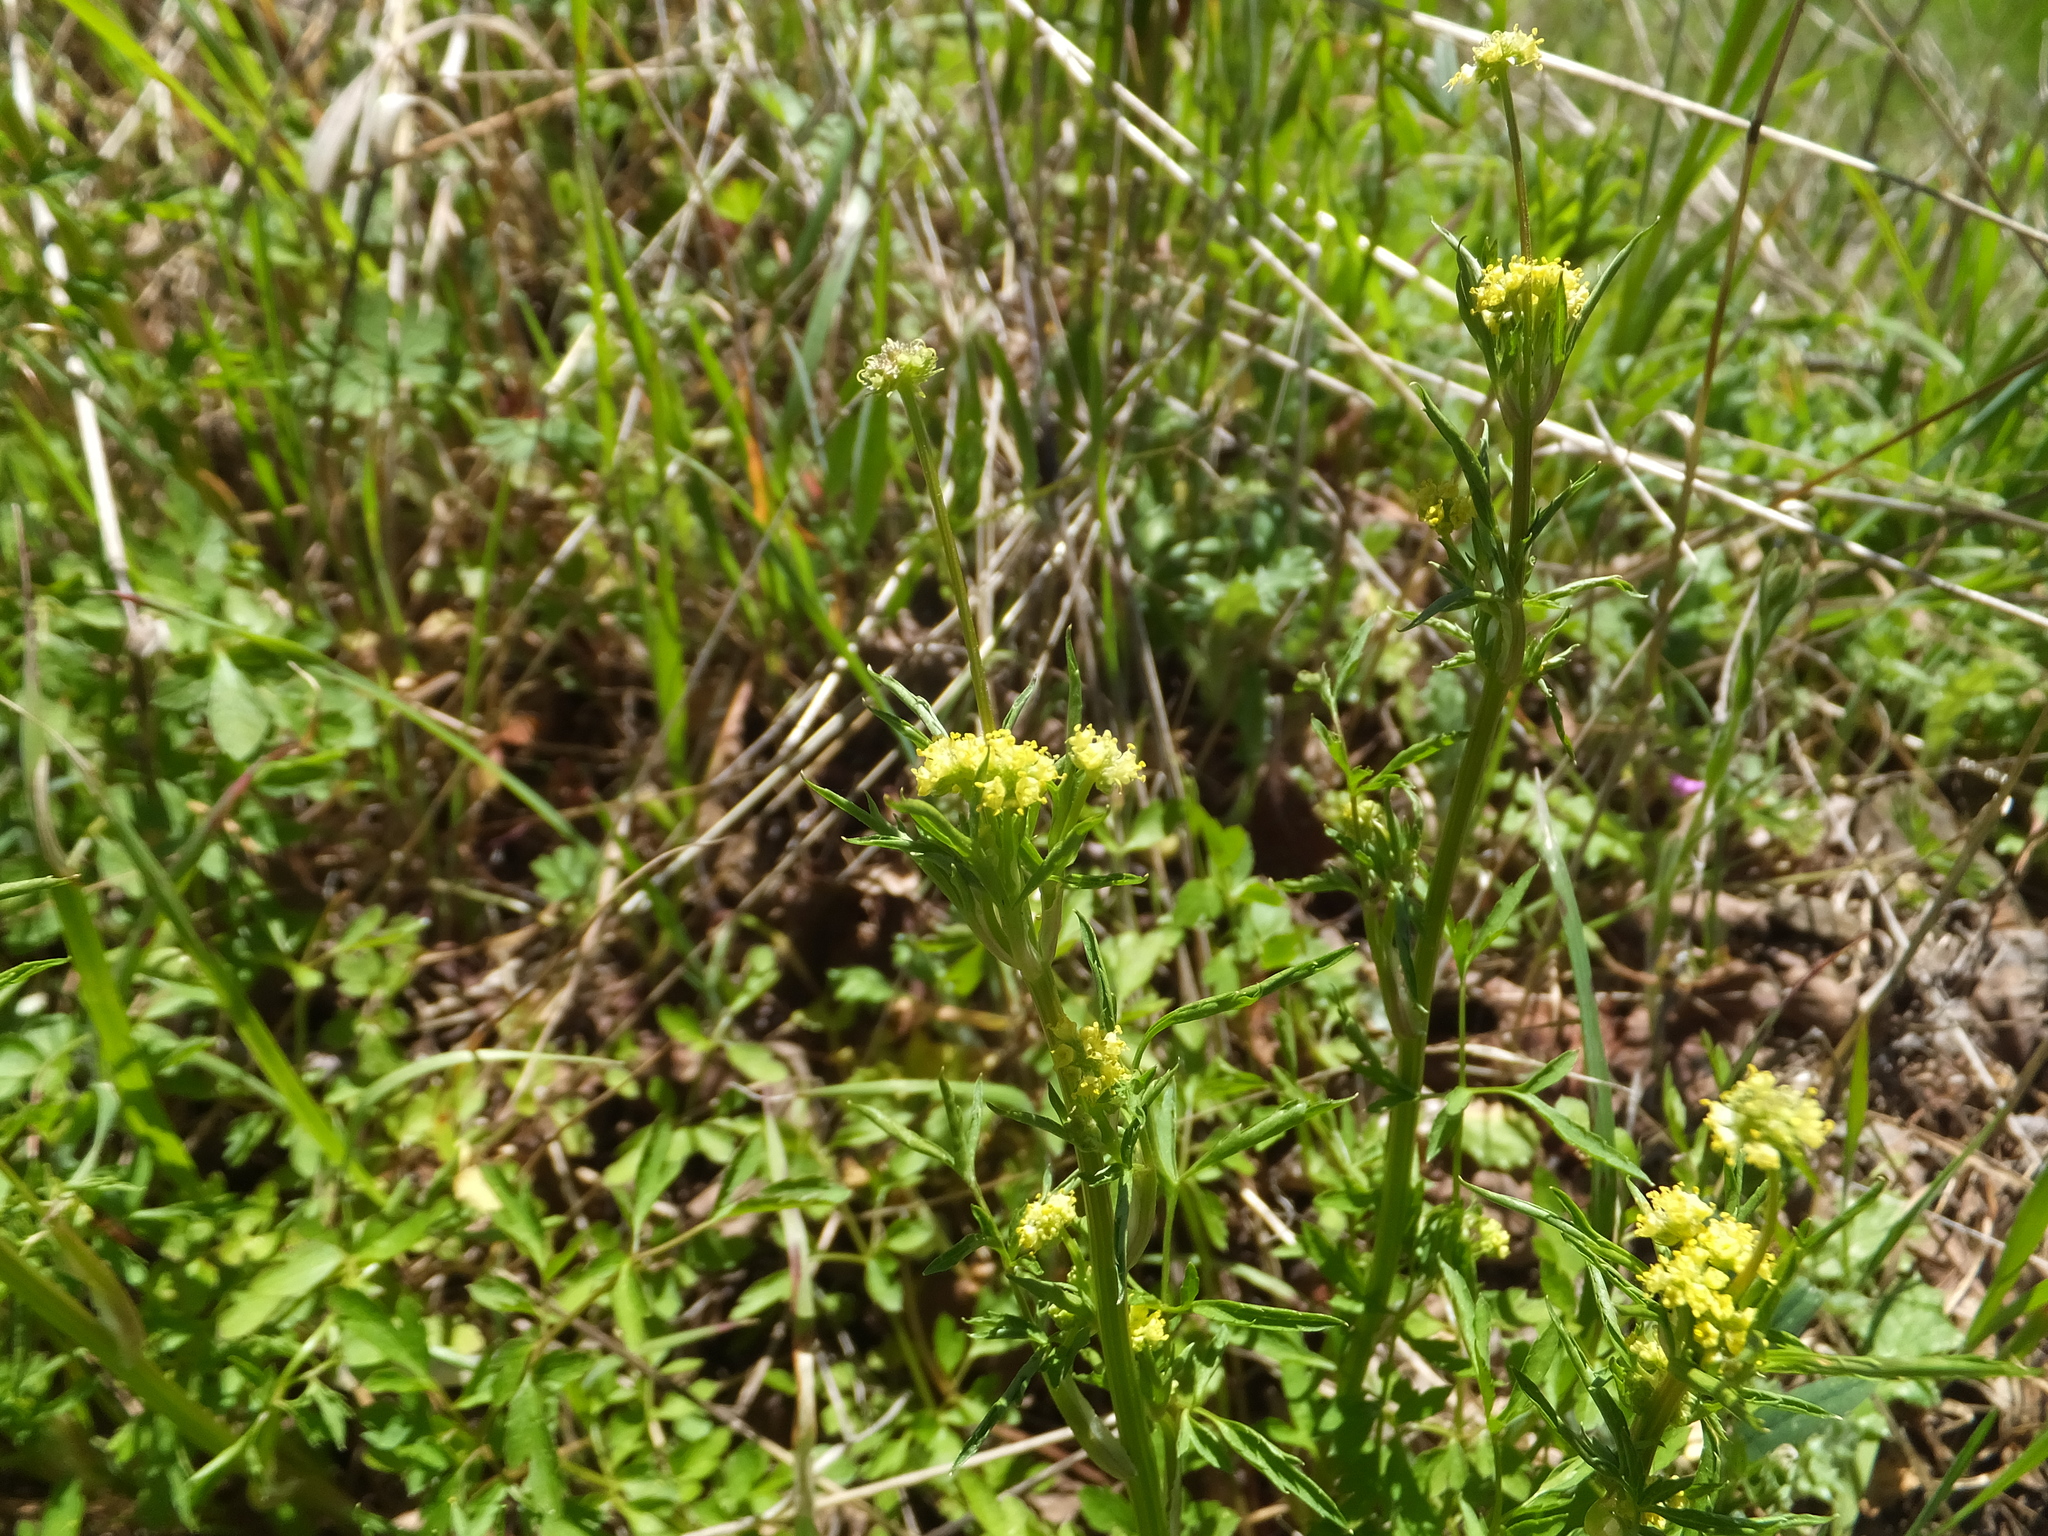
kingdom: Plantae
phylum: Tracheophyta
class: Magnoliopsida
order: Apiales
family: Apiaceae
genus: Sanicula
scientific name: Sanicula bipinnata
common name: Poison sanicle
